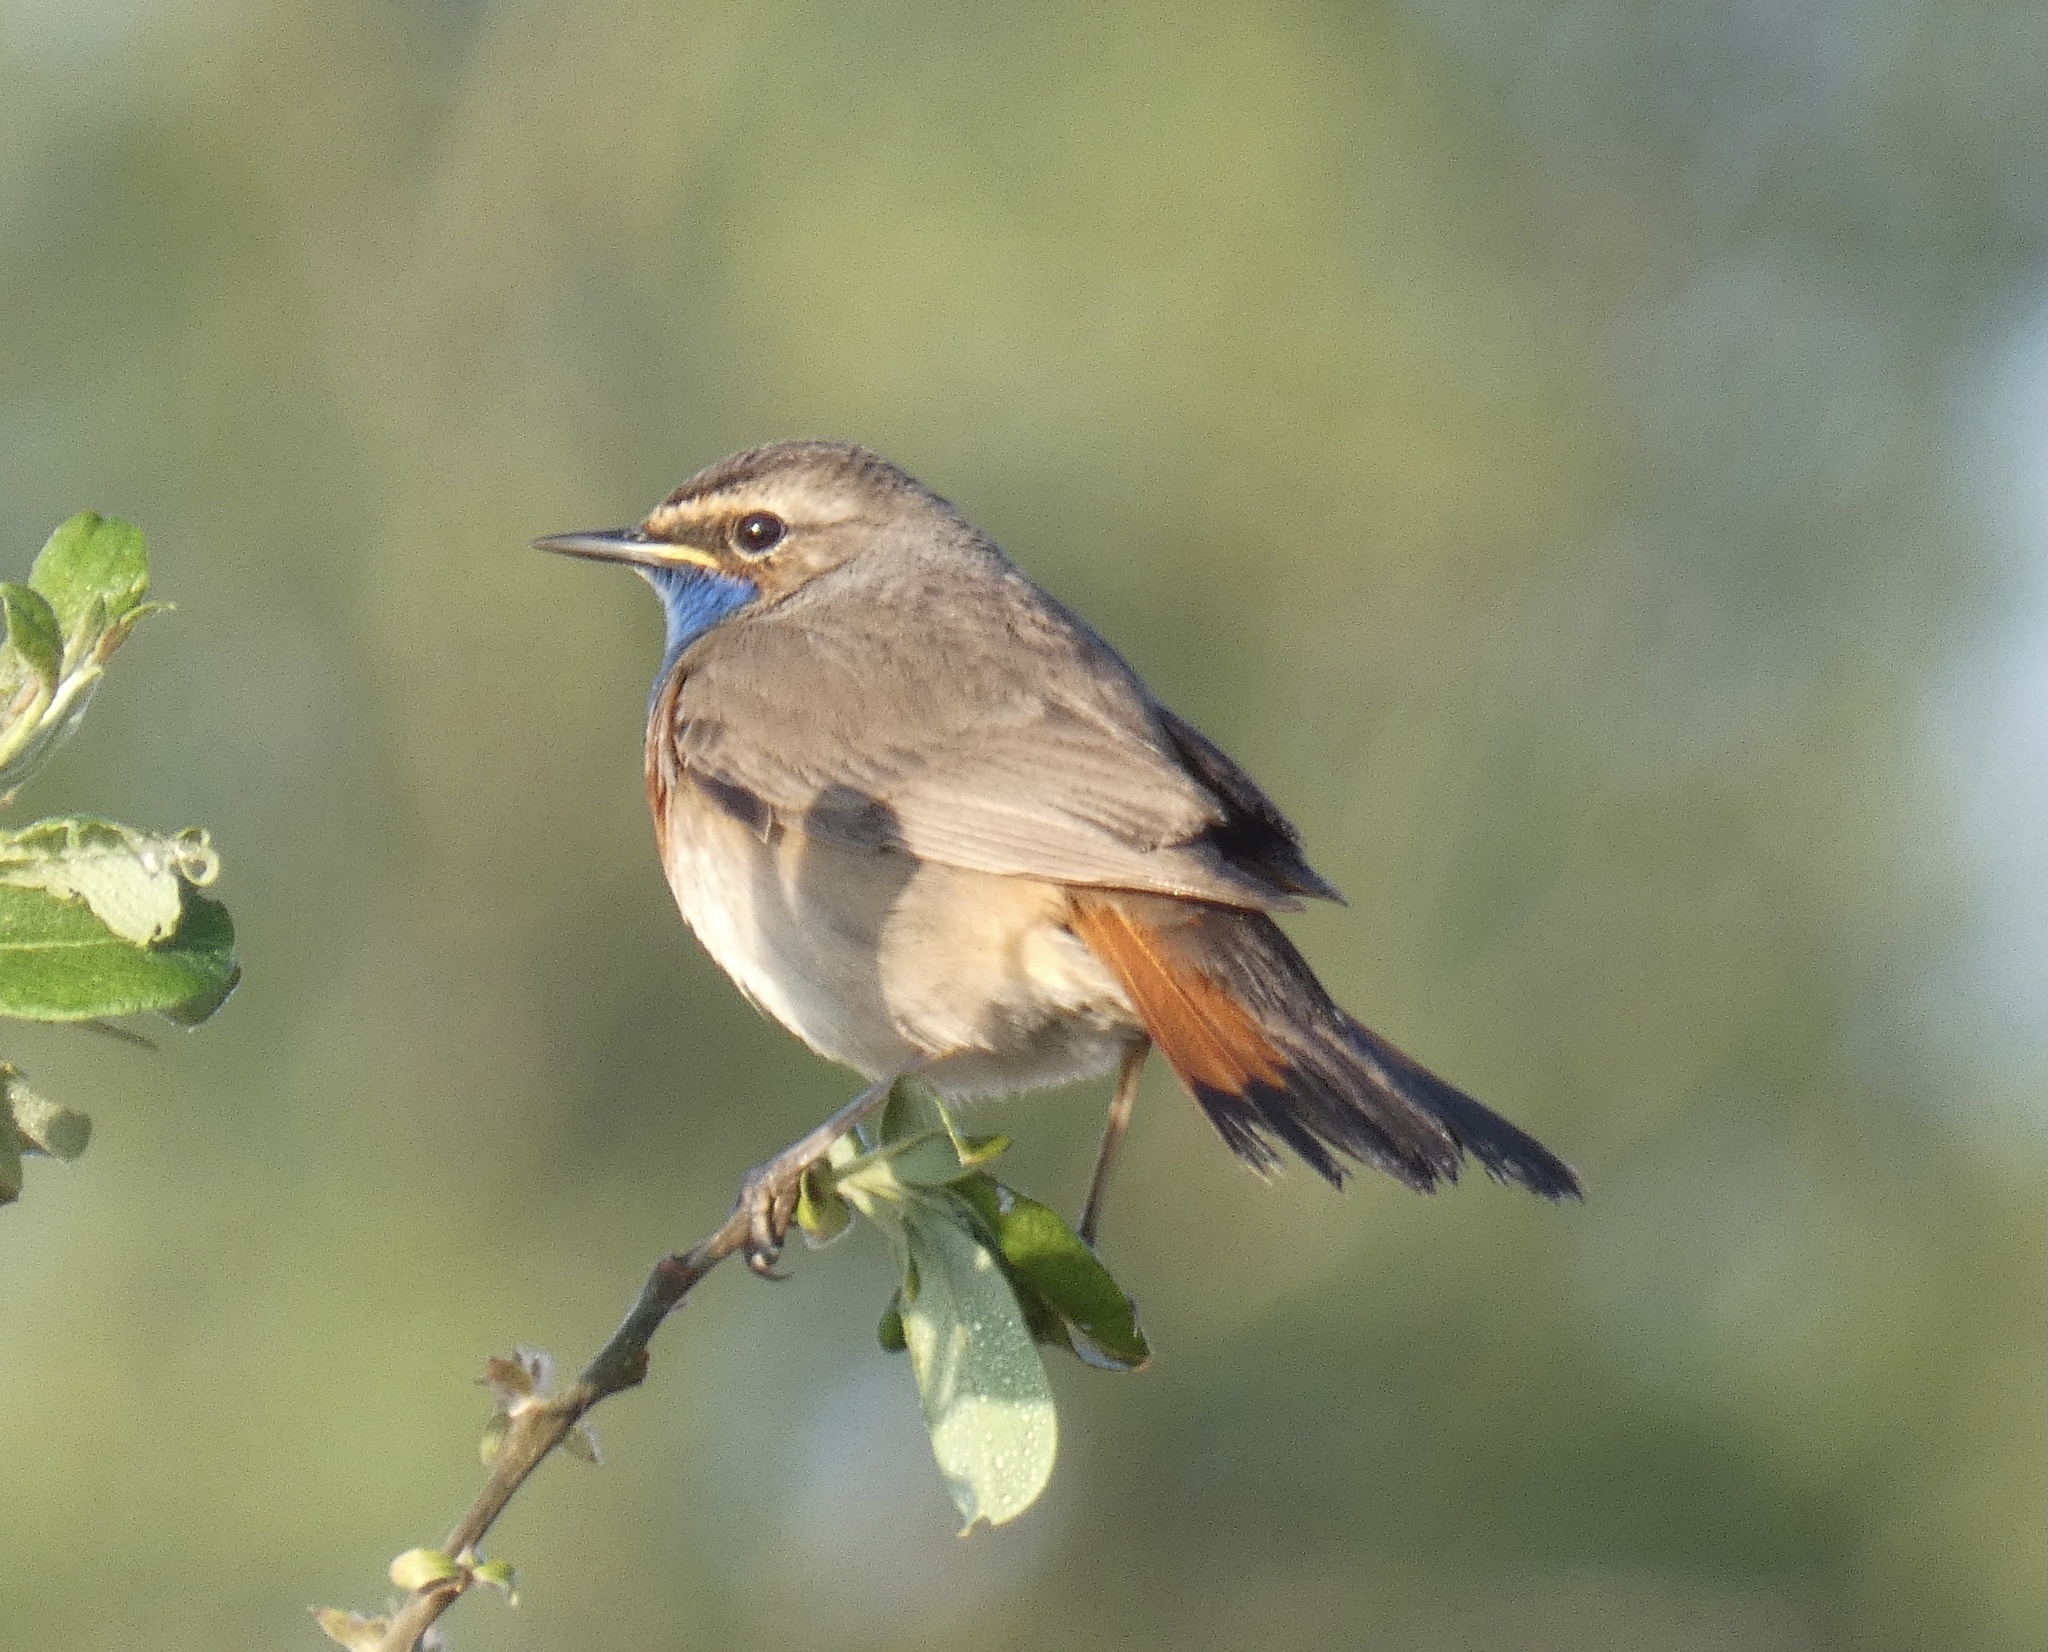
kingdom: Animalia
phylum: Chordata
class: Aves
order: Passeriformes
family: Muscicapidae
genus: Luscinia
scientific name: Luscinia svecica
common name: Bluethroat
